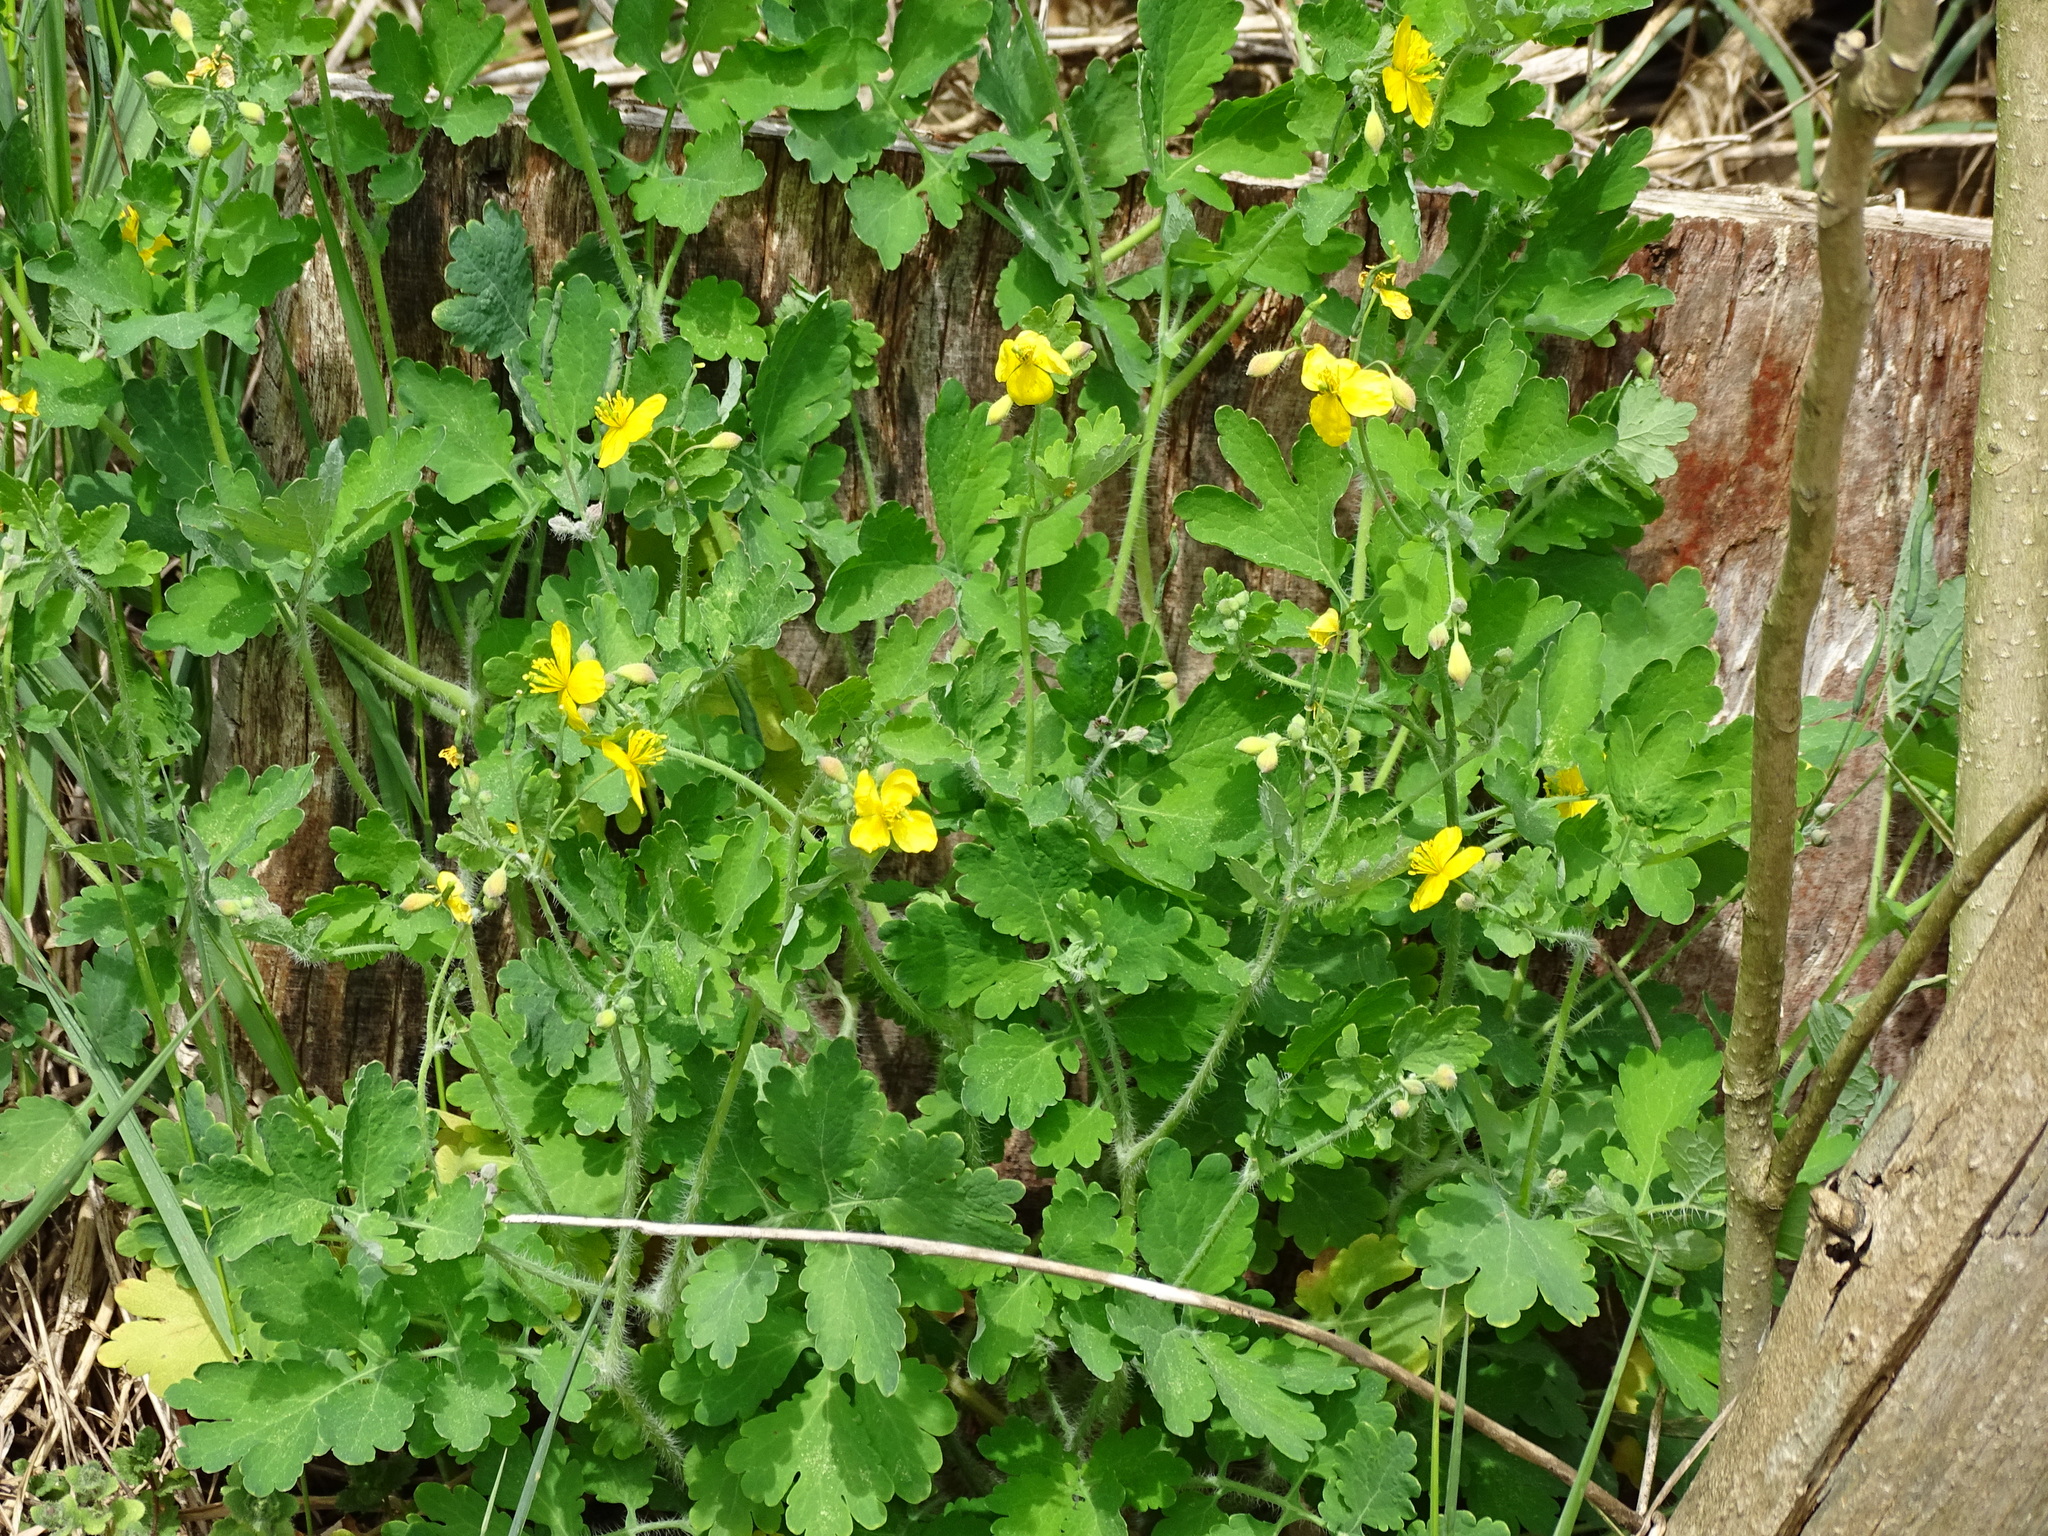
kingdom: Plantae
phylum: Tracheophyta
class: Magnoliopsida
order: Ranunculales
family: Papaveraceae
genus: Chelidonium
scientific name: Chelidonium majus
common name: Greater celandine
